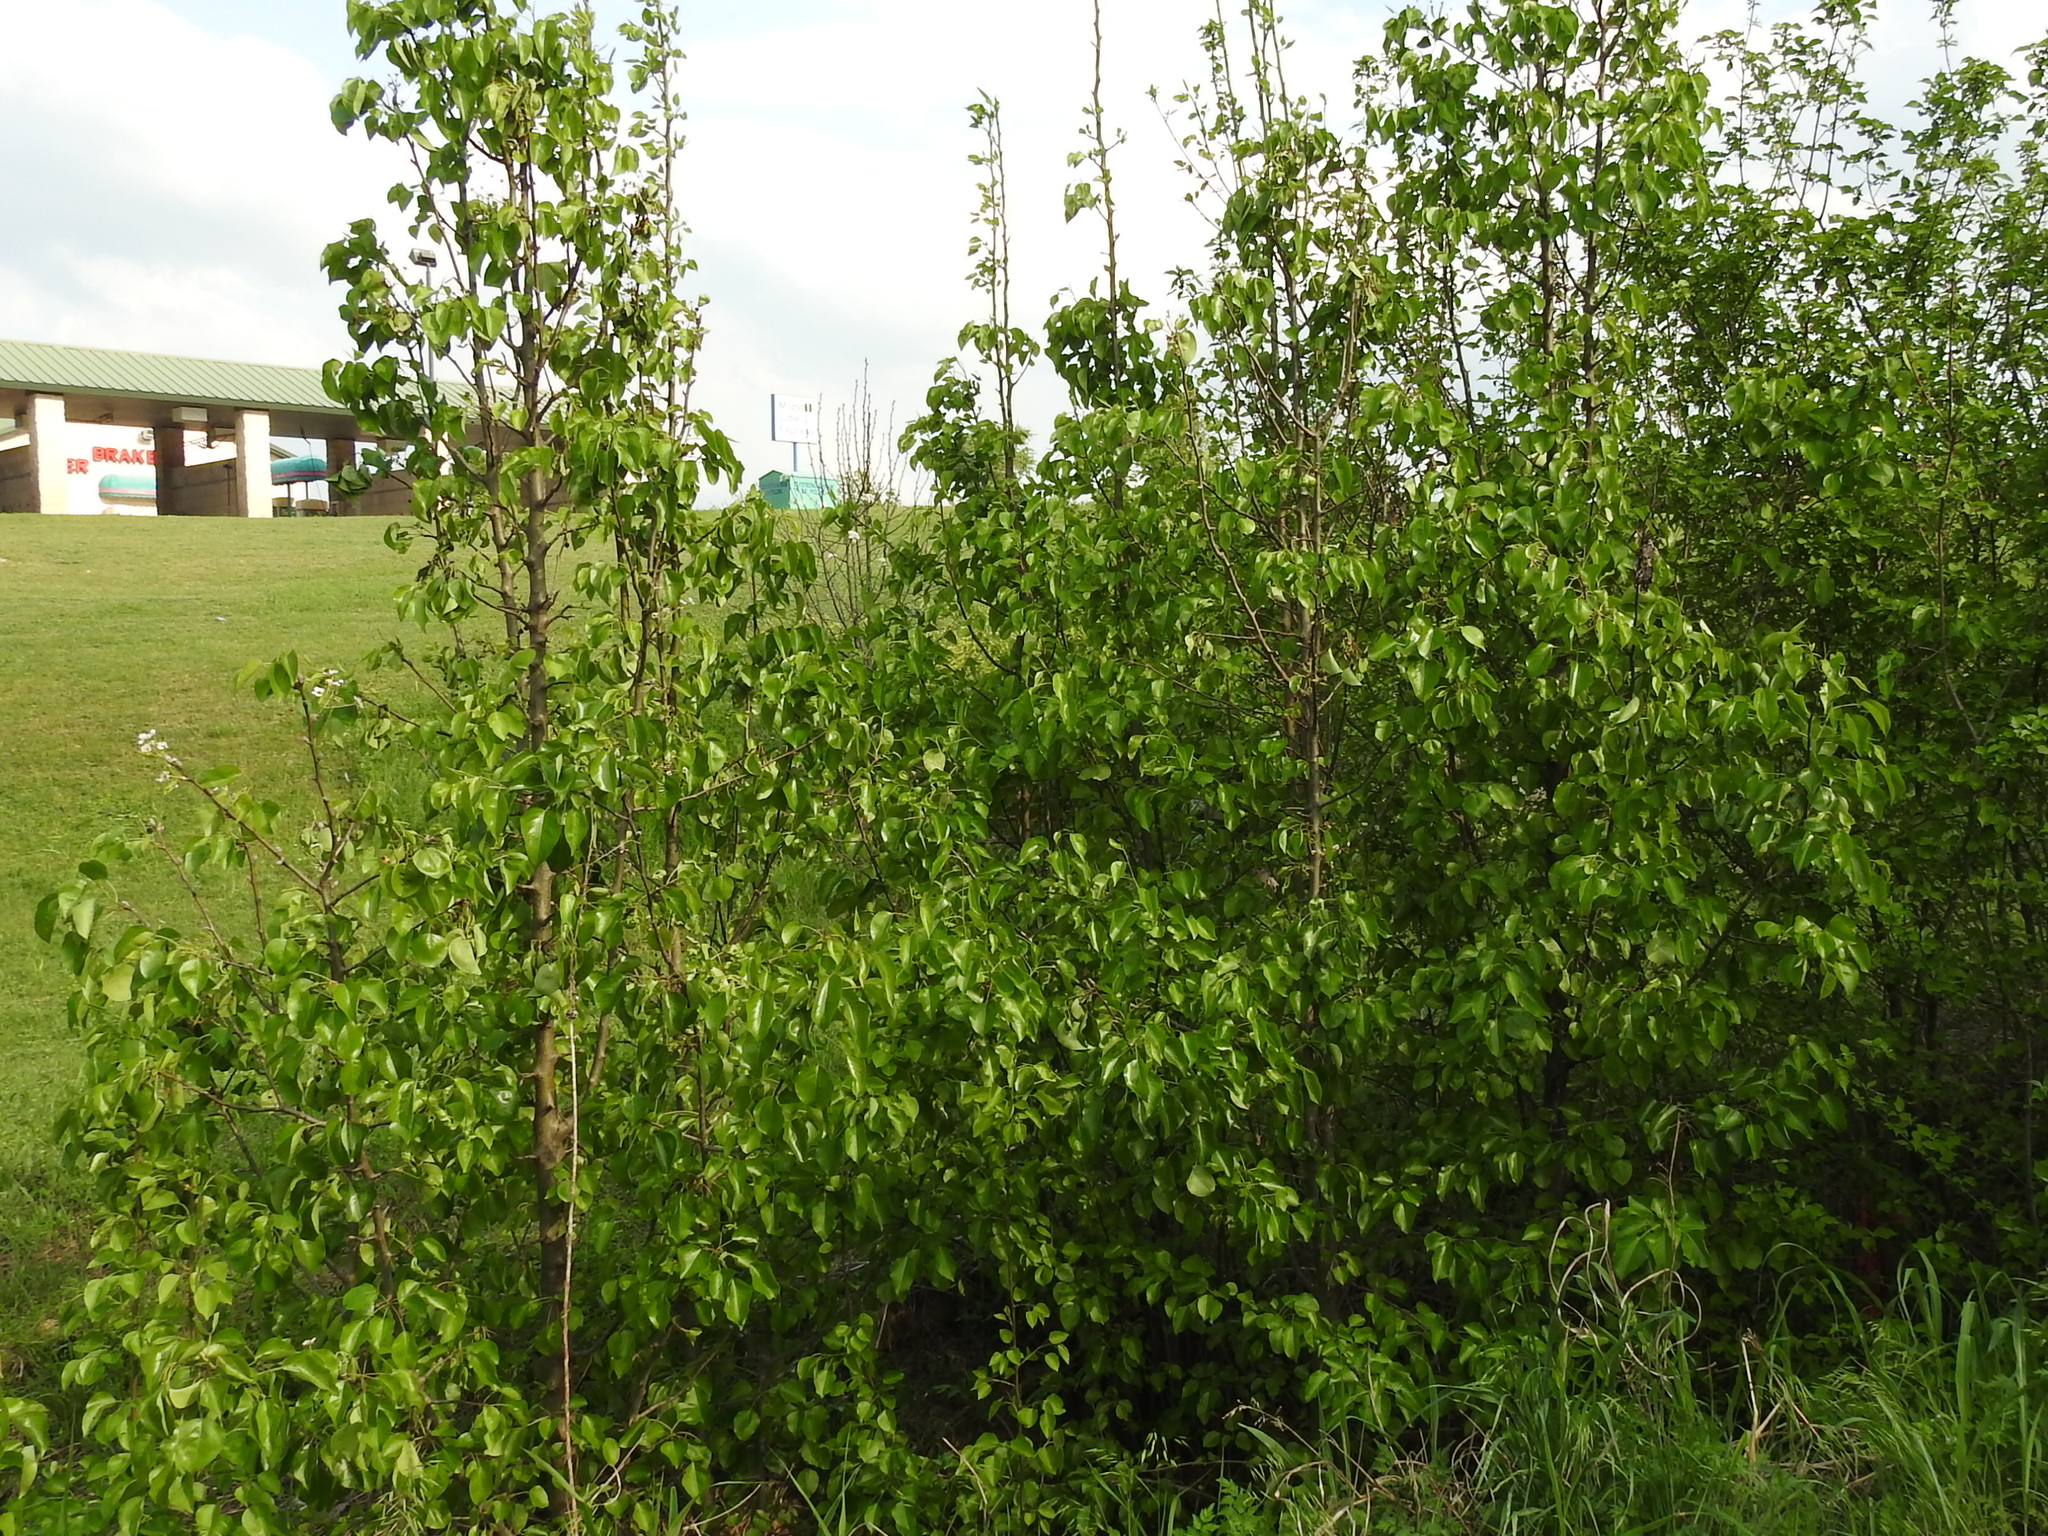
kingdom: Plantae
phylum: Tracheophyta
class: Magnoliopsida
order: Rosales
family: Rosaceae
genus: Pyrus
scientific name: Pyrus calleryana
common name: Callery pear
